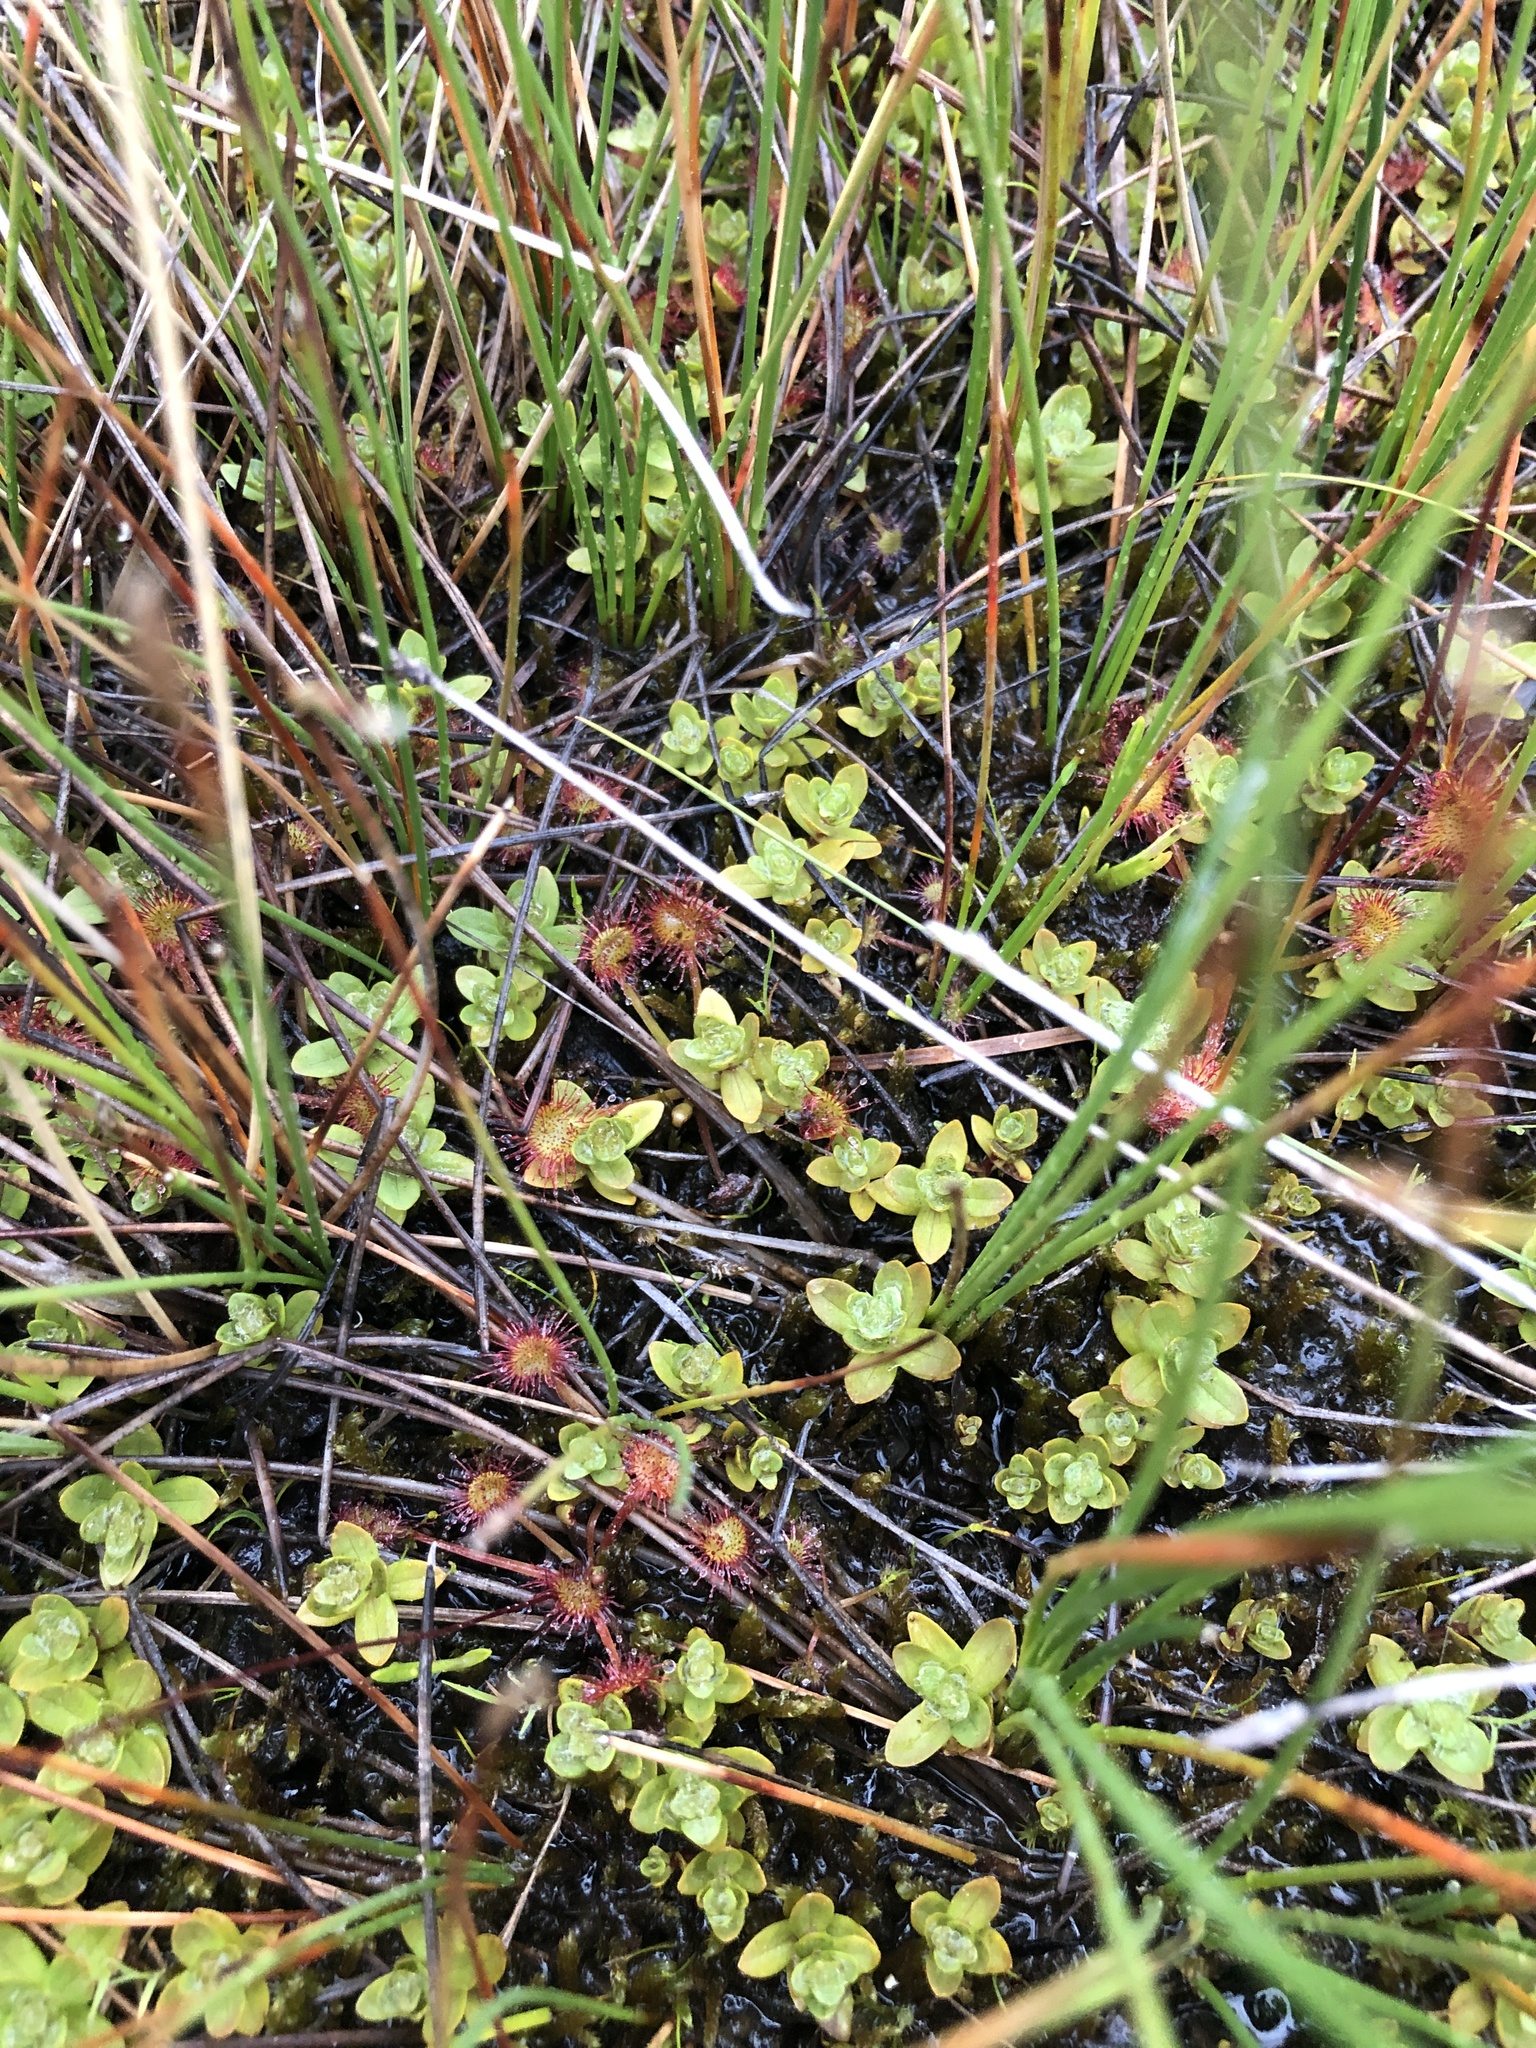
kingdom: Plantae
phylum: Tracheophyta
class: Magnoliopsida
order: Caryophyllales
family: Droseraceae
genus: Drosera
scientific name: Drosera rotundifolia
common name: Round-leaved sundew
